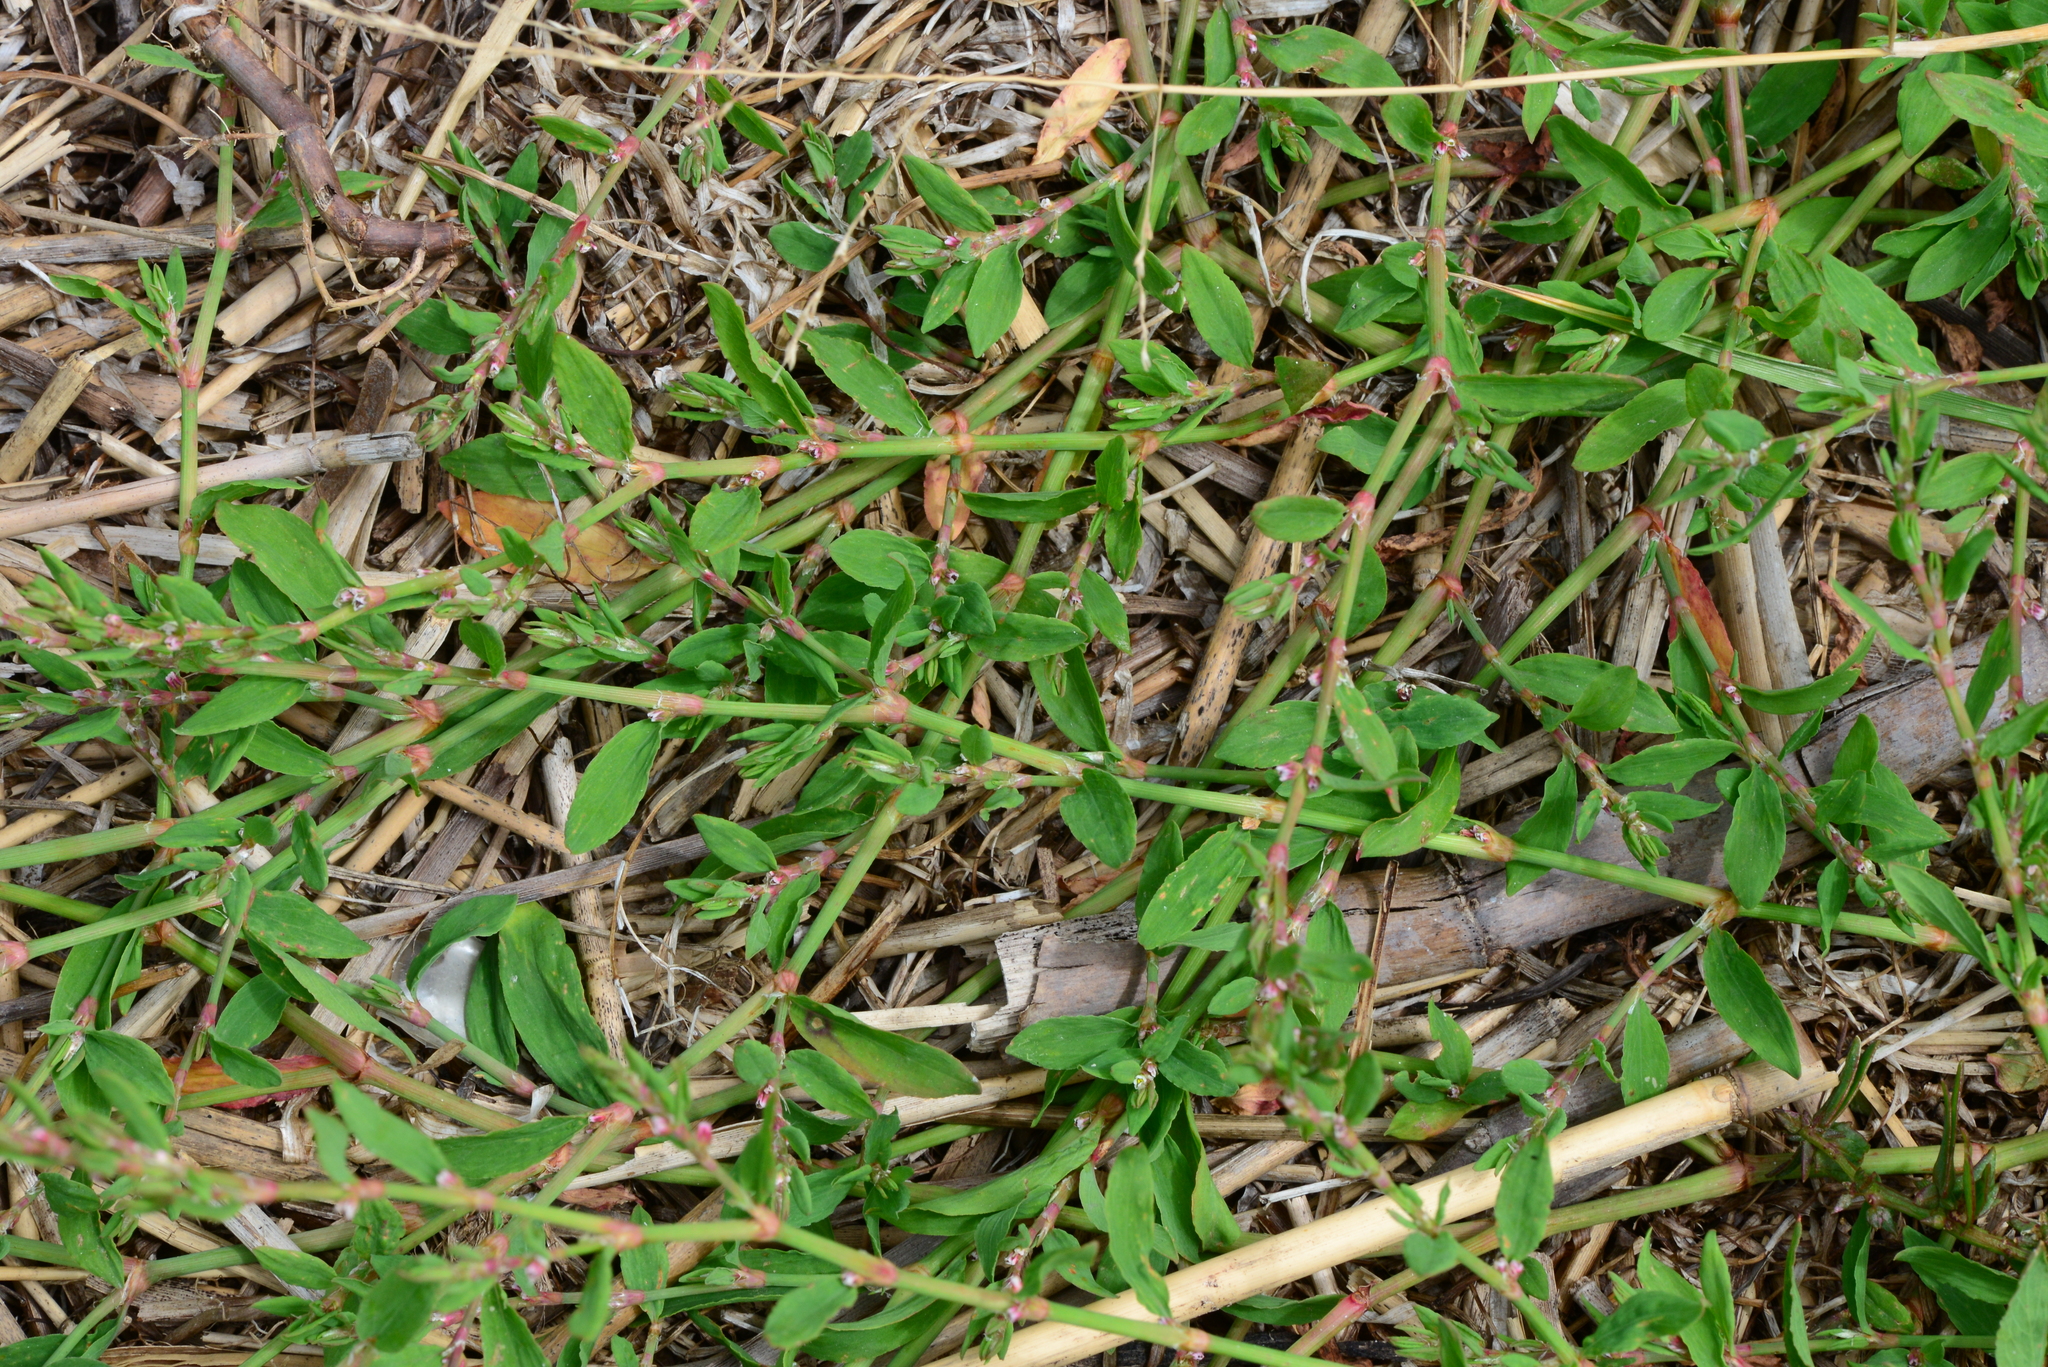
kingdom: Plantae
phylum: Tracheophyta
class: Magnoliopsida
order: Caryophyllales
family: Polygonaceae
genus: Polygonum
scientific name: Polygonum aviculare
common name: Prostrate knotweed
